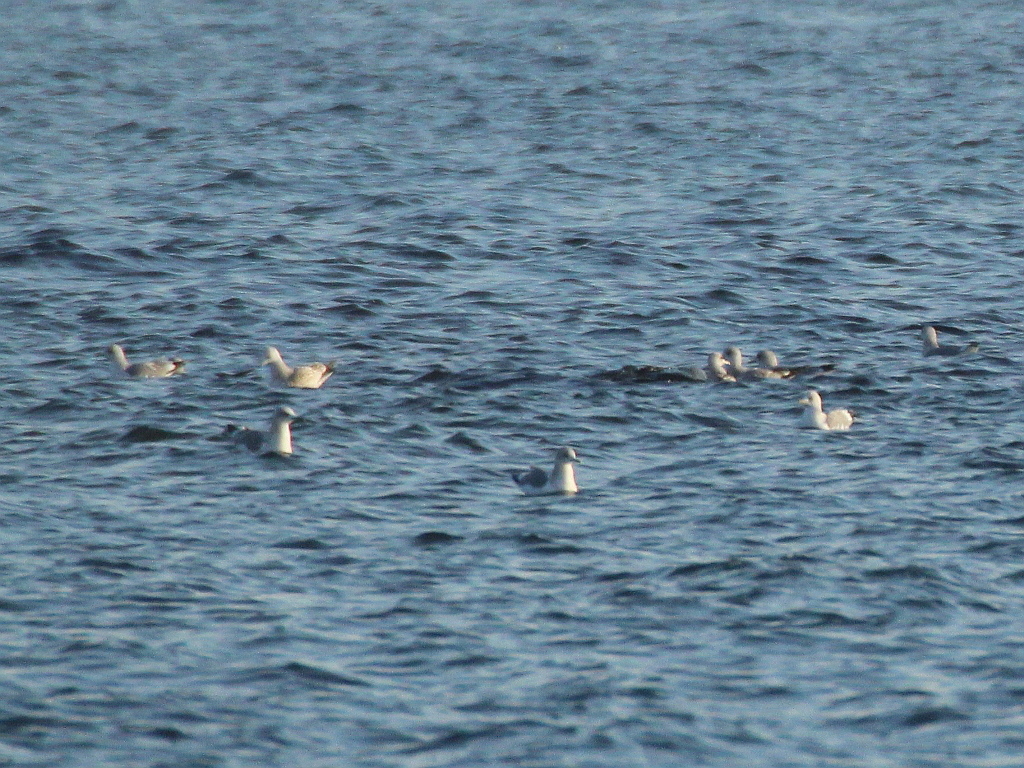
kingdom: Animalia
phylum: Chordata
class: Aves
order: Charadriiformes
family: Laridae
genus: Larus
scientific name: Larus canus
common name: Mew gull
